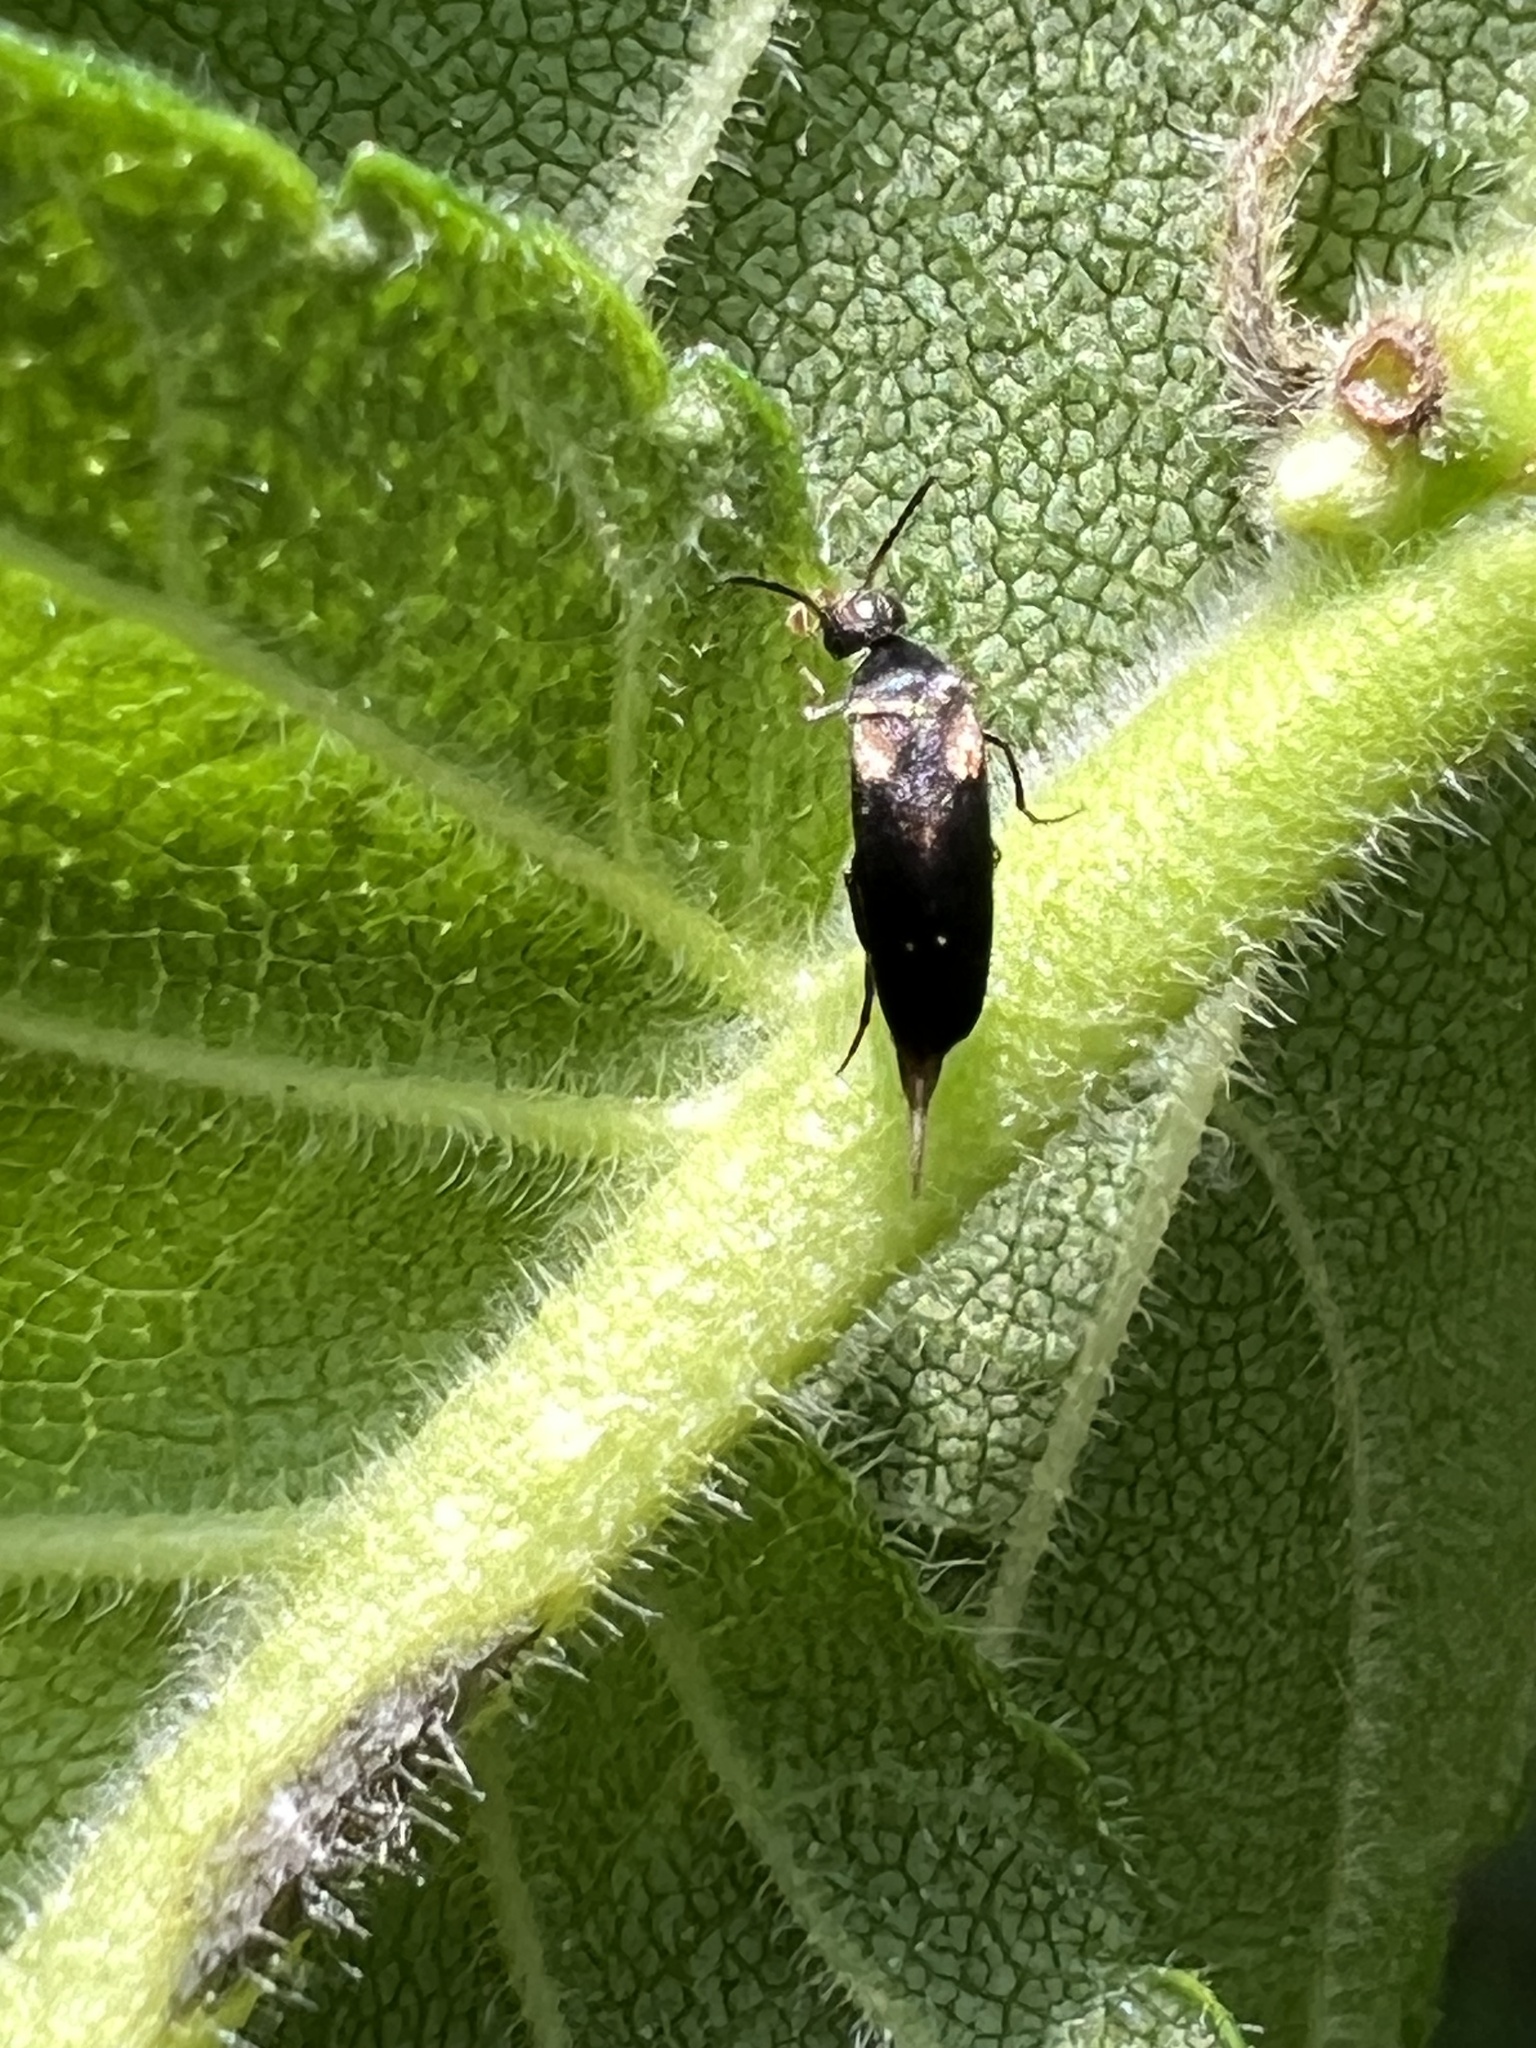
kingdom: Animalia
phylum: Arthropoda
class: Insecta
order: Coleoptera
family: Mordellidae
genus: Mordellochroa
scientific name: Mordellochroa scapularis
